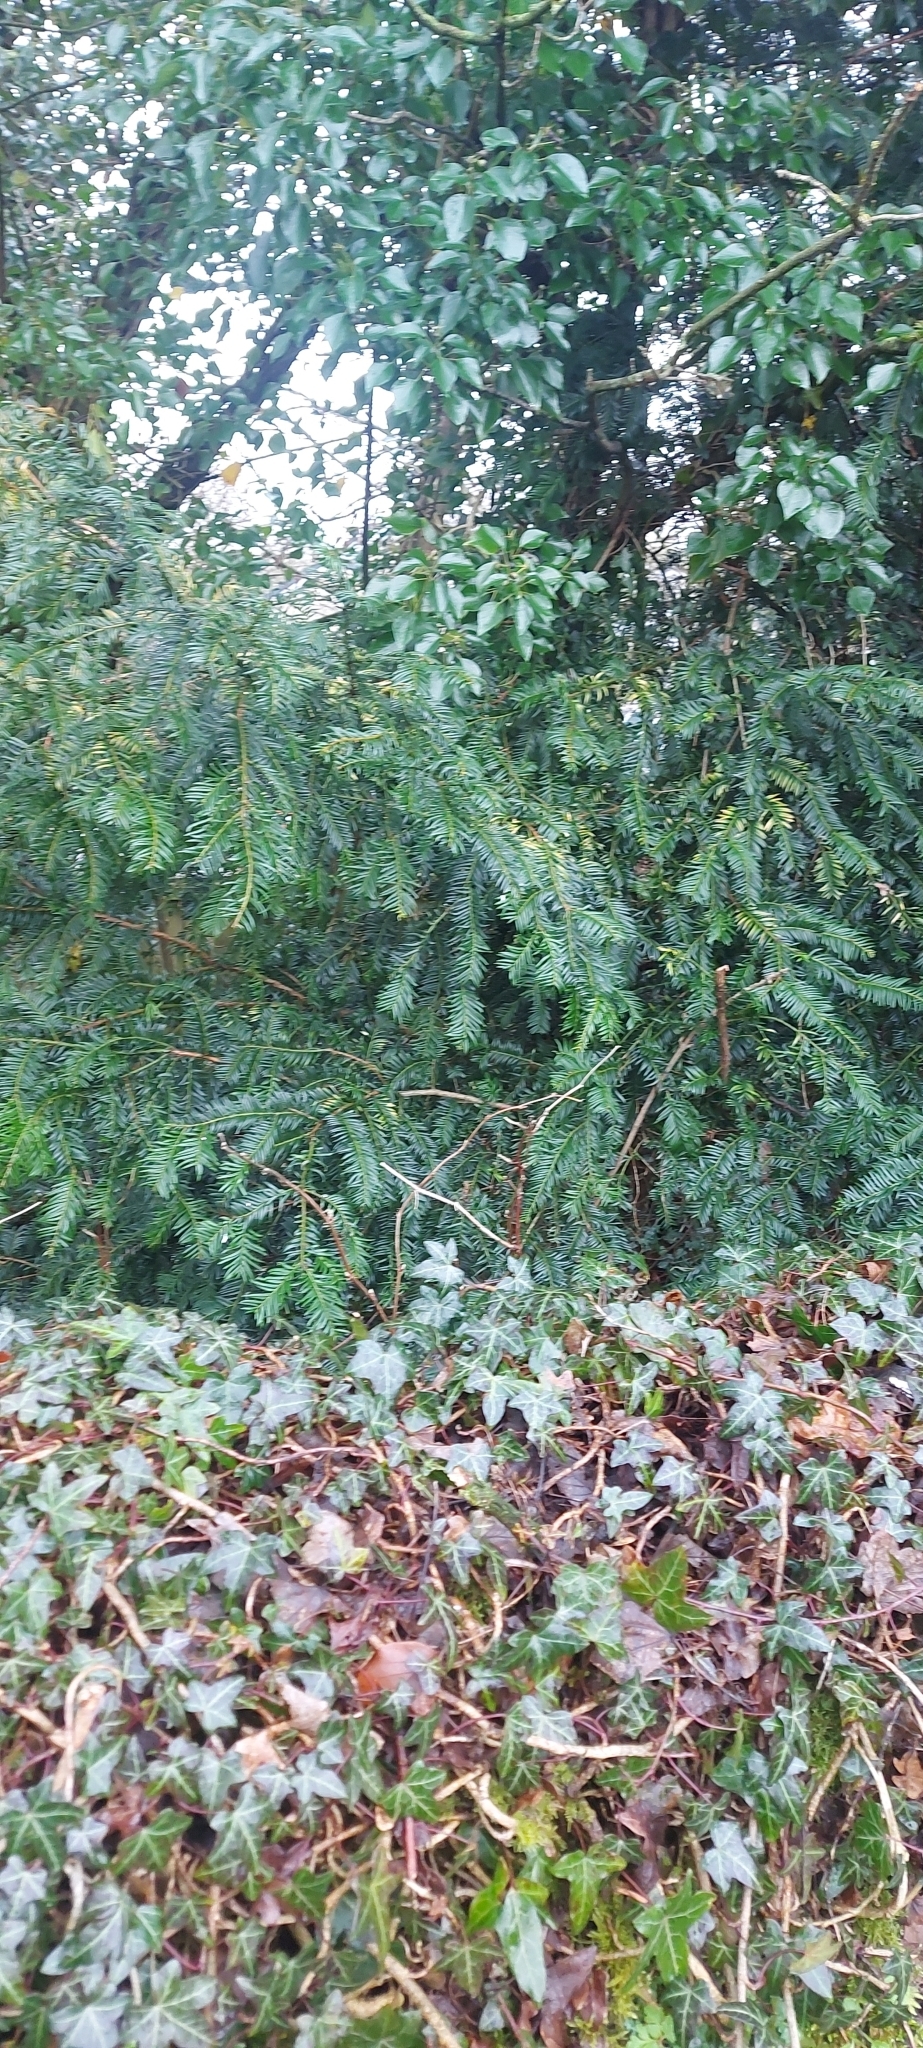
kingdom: Plantae
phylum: Tracheophyta
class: Pinopsida
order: Pinales
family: Taxaceae
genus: Taxus
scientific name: Taxus baccata
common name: Yew
